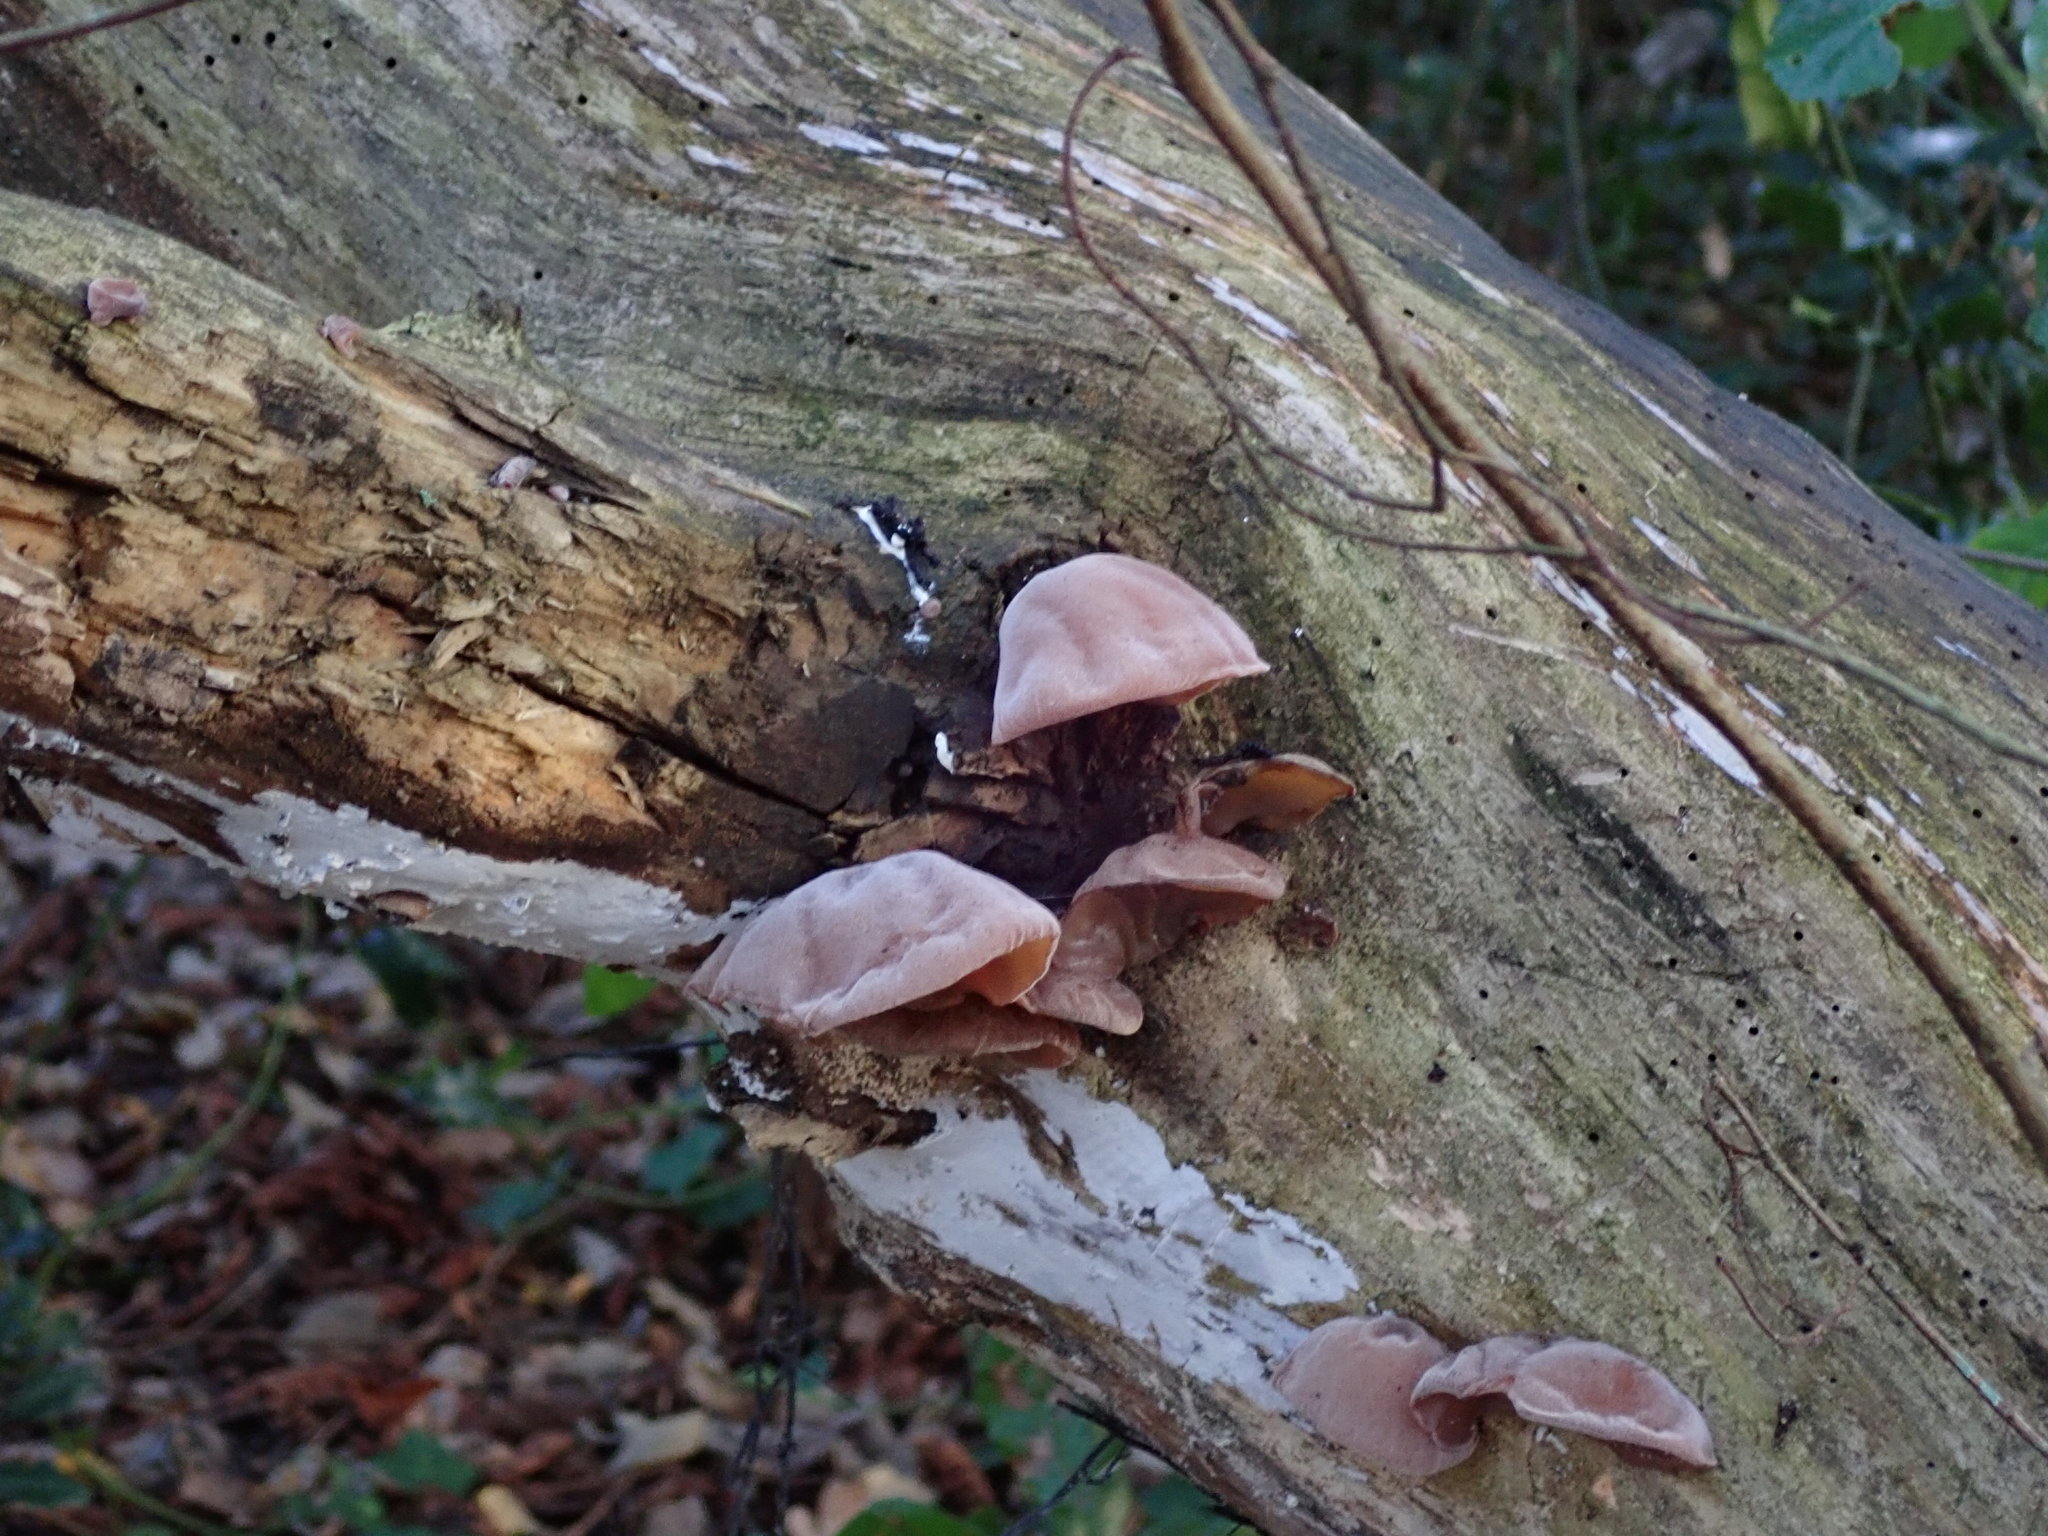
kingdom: Fungi
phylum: Basidiomycota
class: Agaricomycetes
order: Auriculariales
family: Auriculariaceae
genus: Auricularia
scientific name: Auricularia auricula-judae
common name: Jelly ear
